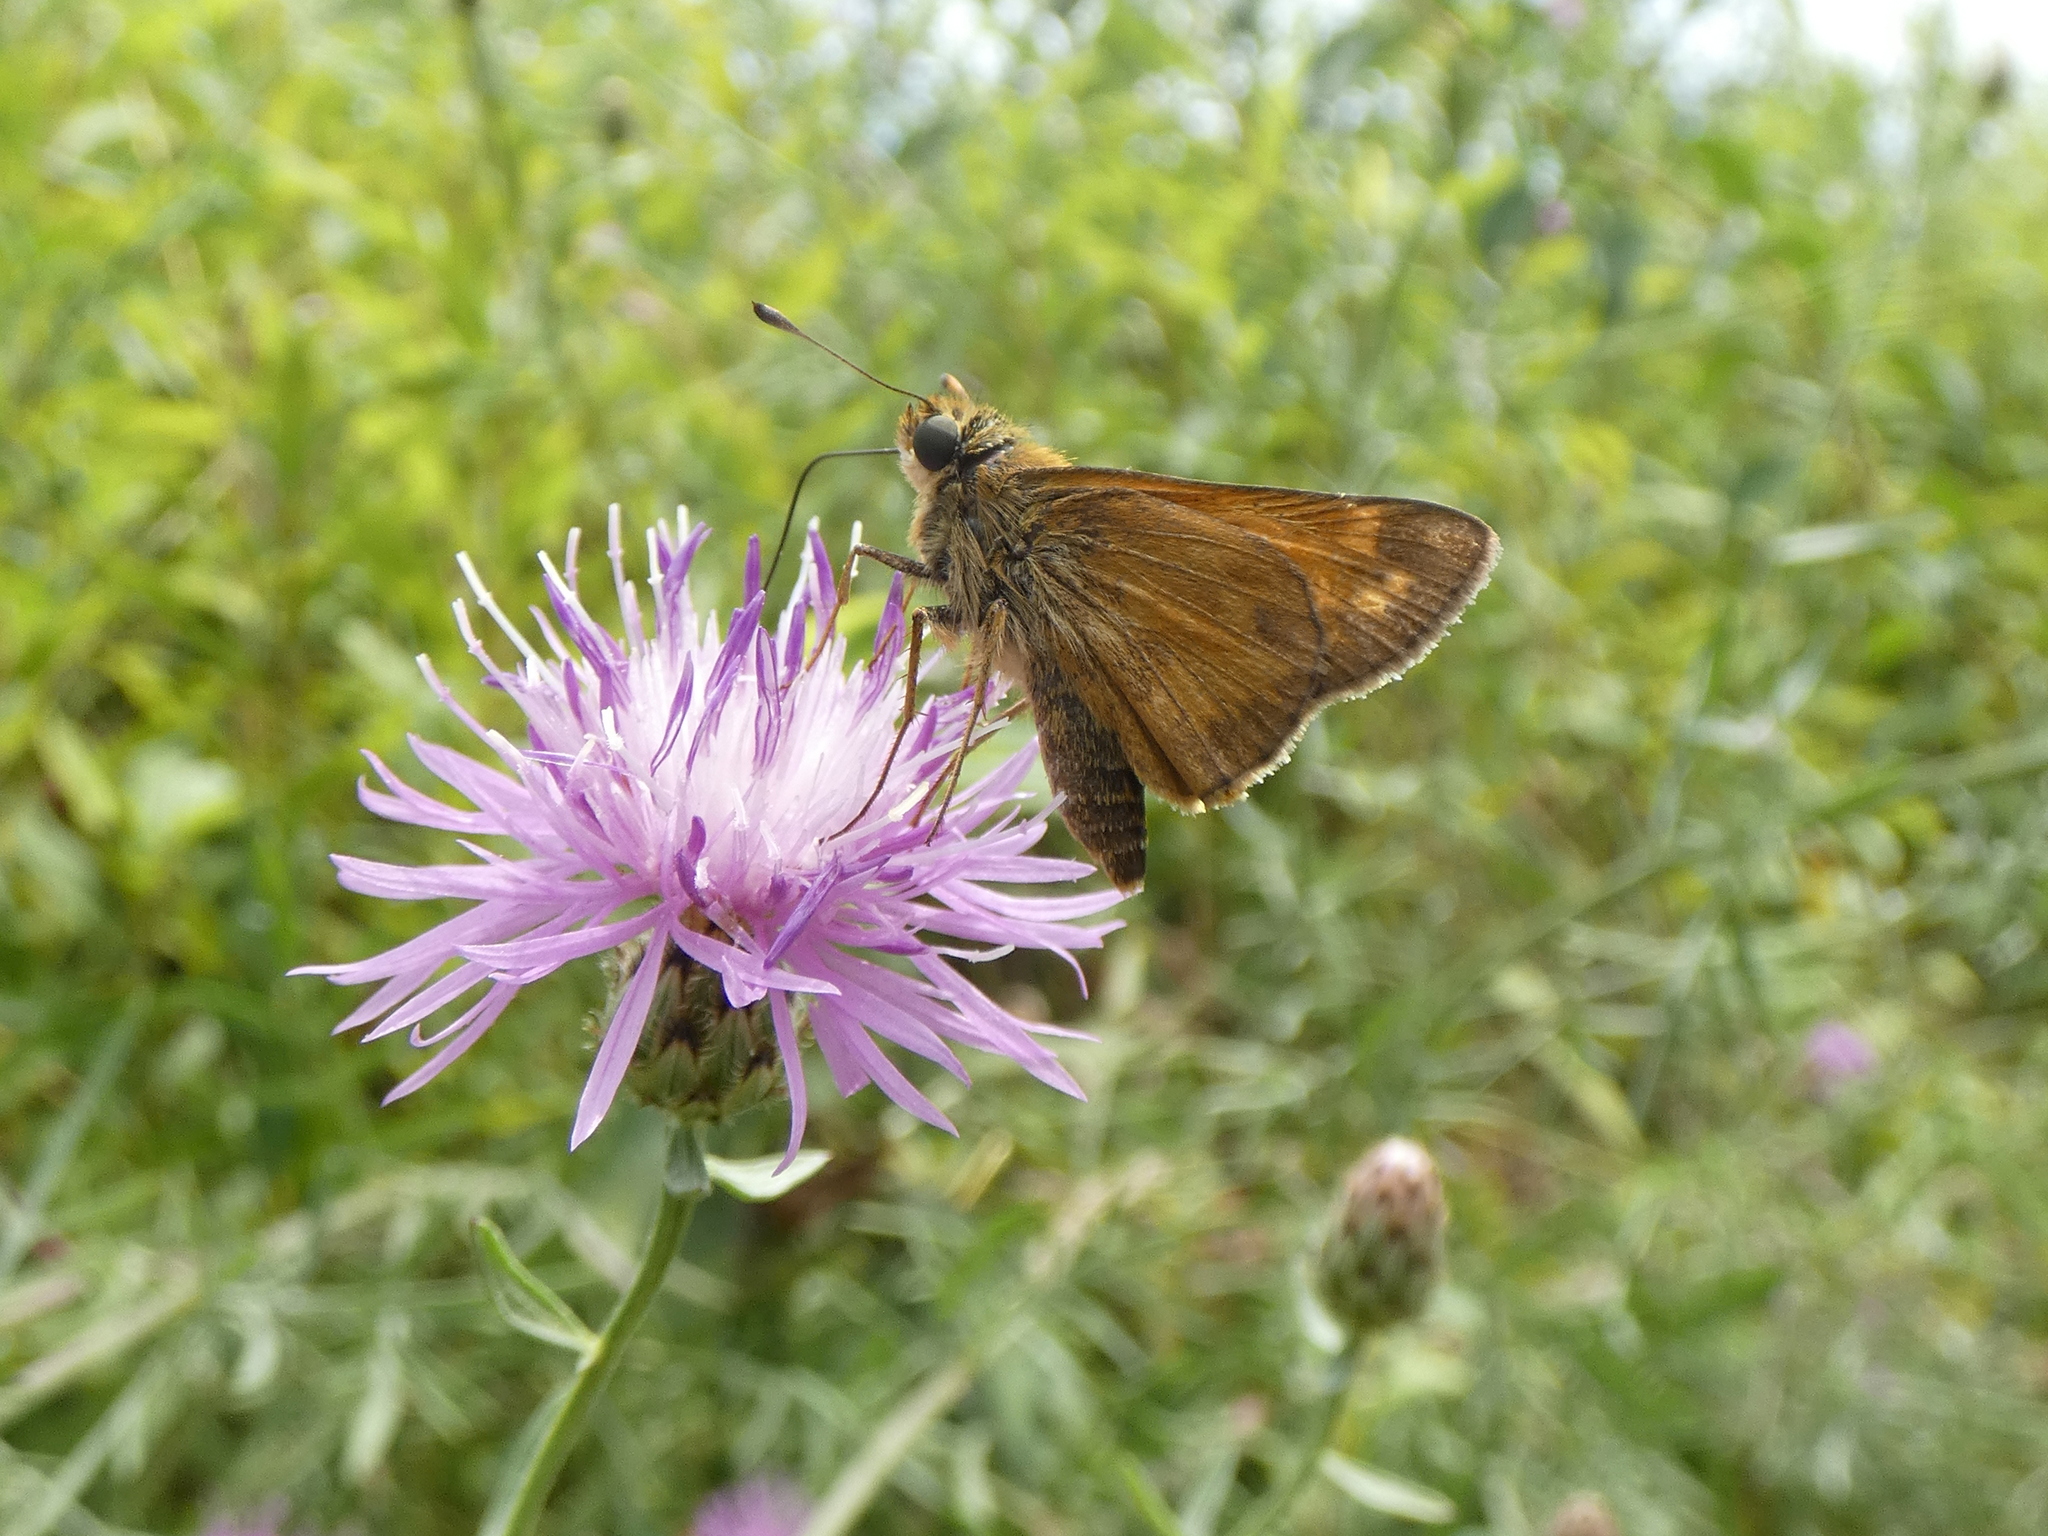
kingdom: Animalia
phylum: Arthropoda
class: Insecta
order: Lepidoptera
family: Hesperiidae
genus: Atalopedes
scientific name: Atalopedes
